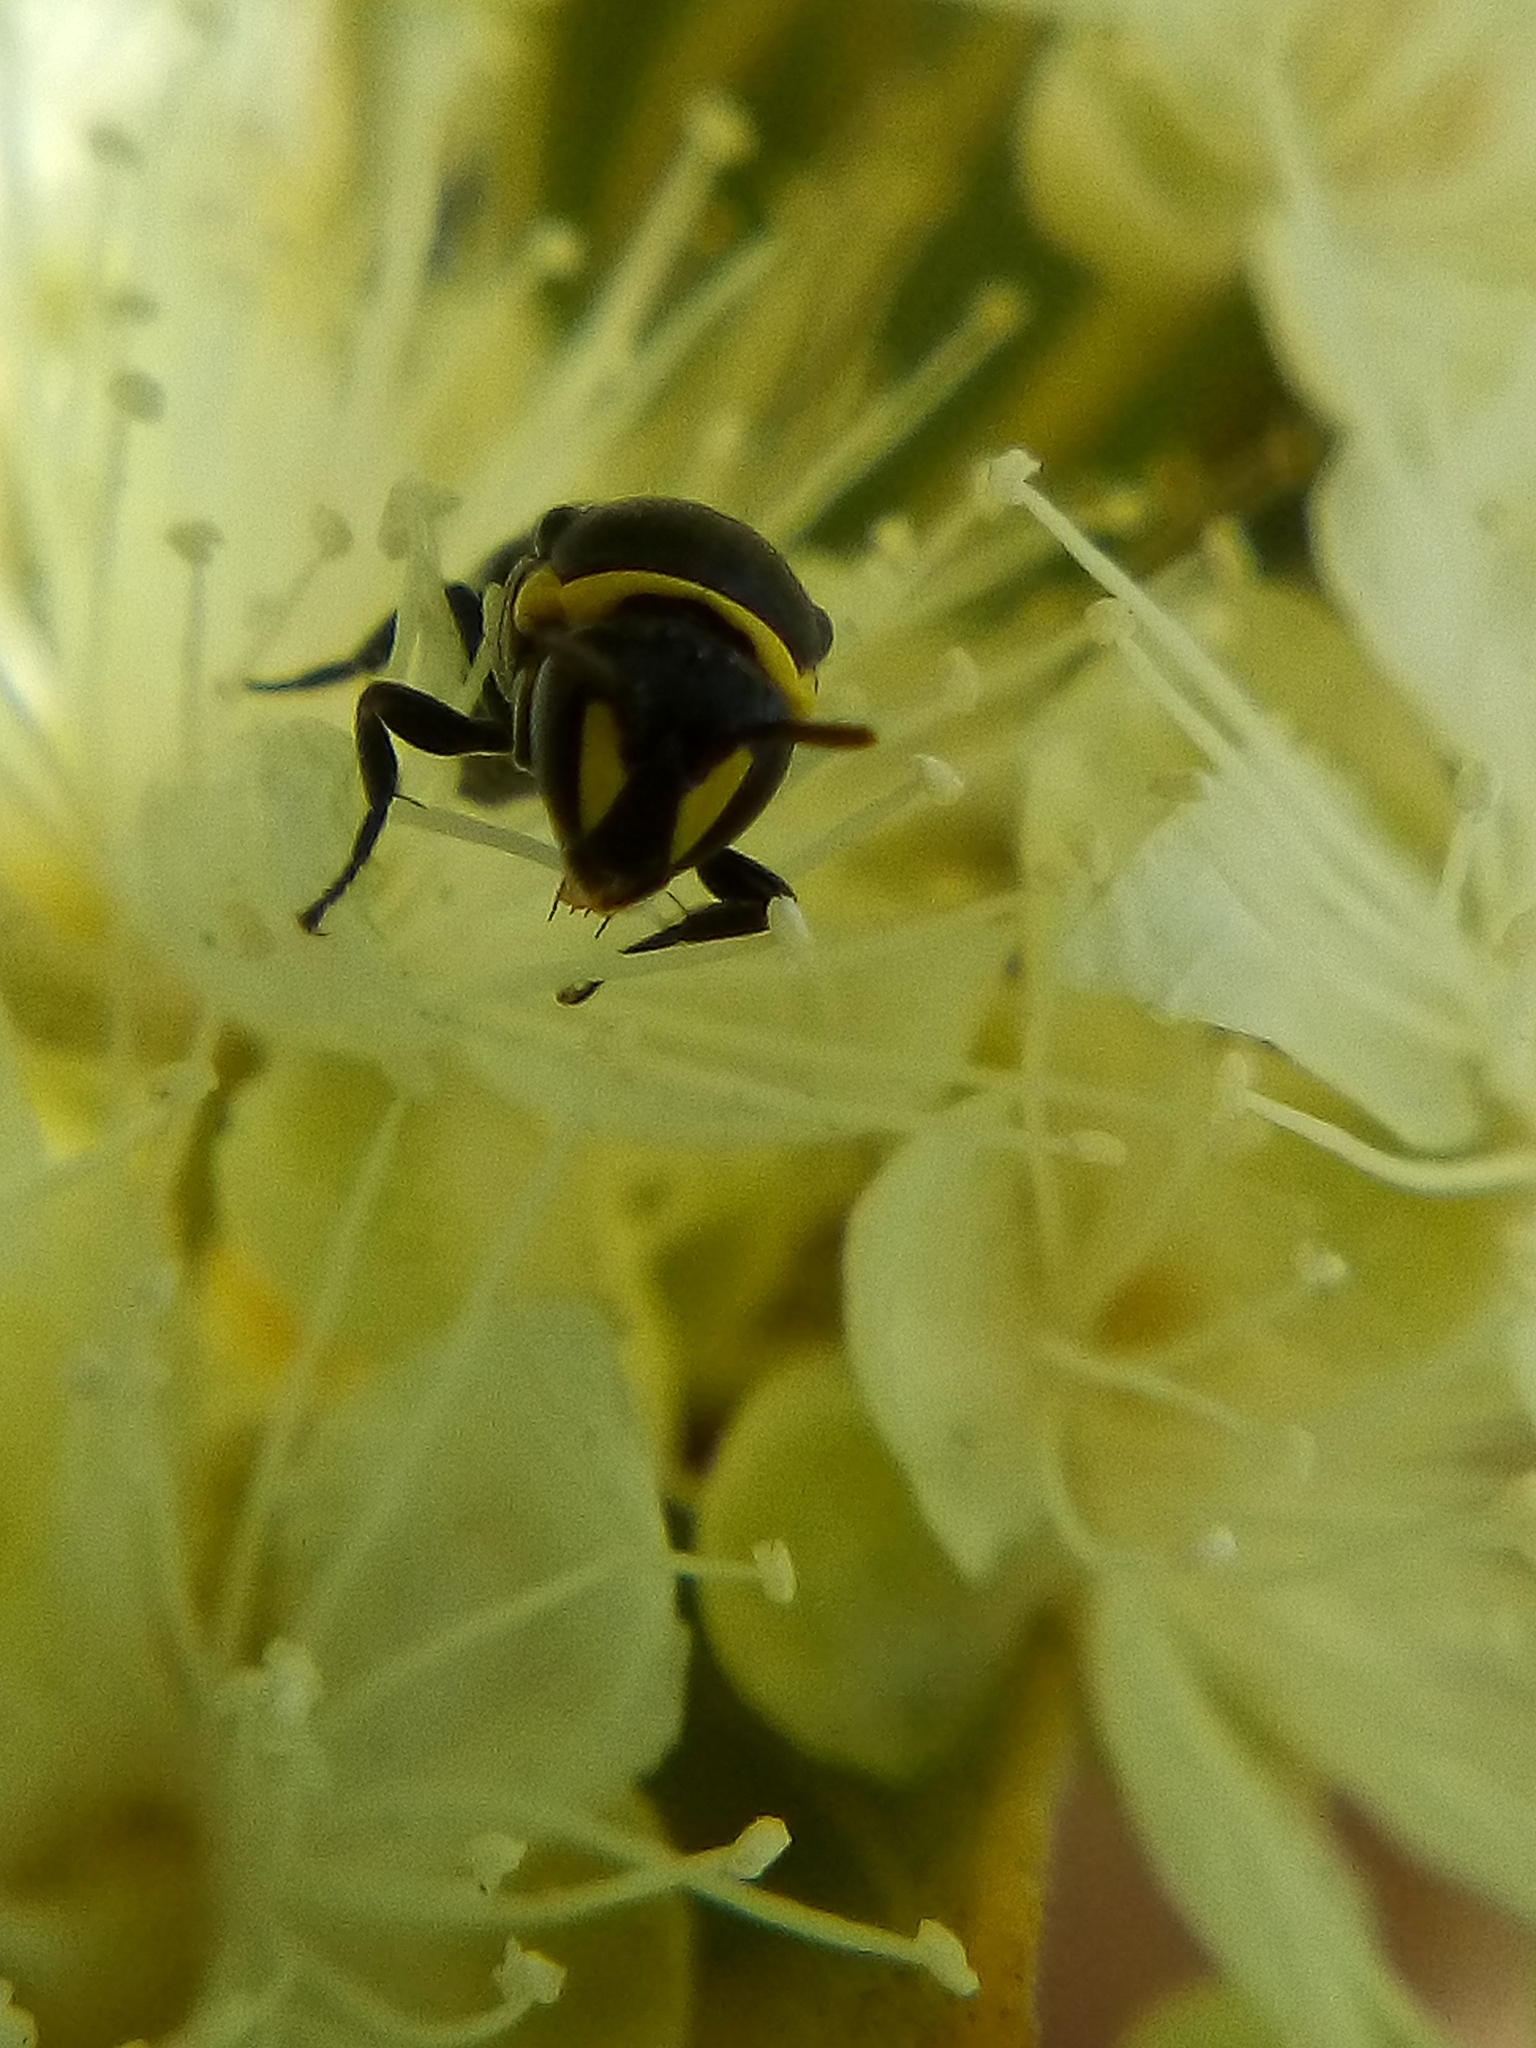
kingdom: Animalia
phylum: Arthropoda
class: Insecta
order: Hymenoptera
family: Colletidae
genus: Hylaeus
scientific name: Hylaeus euxanthus
